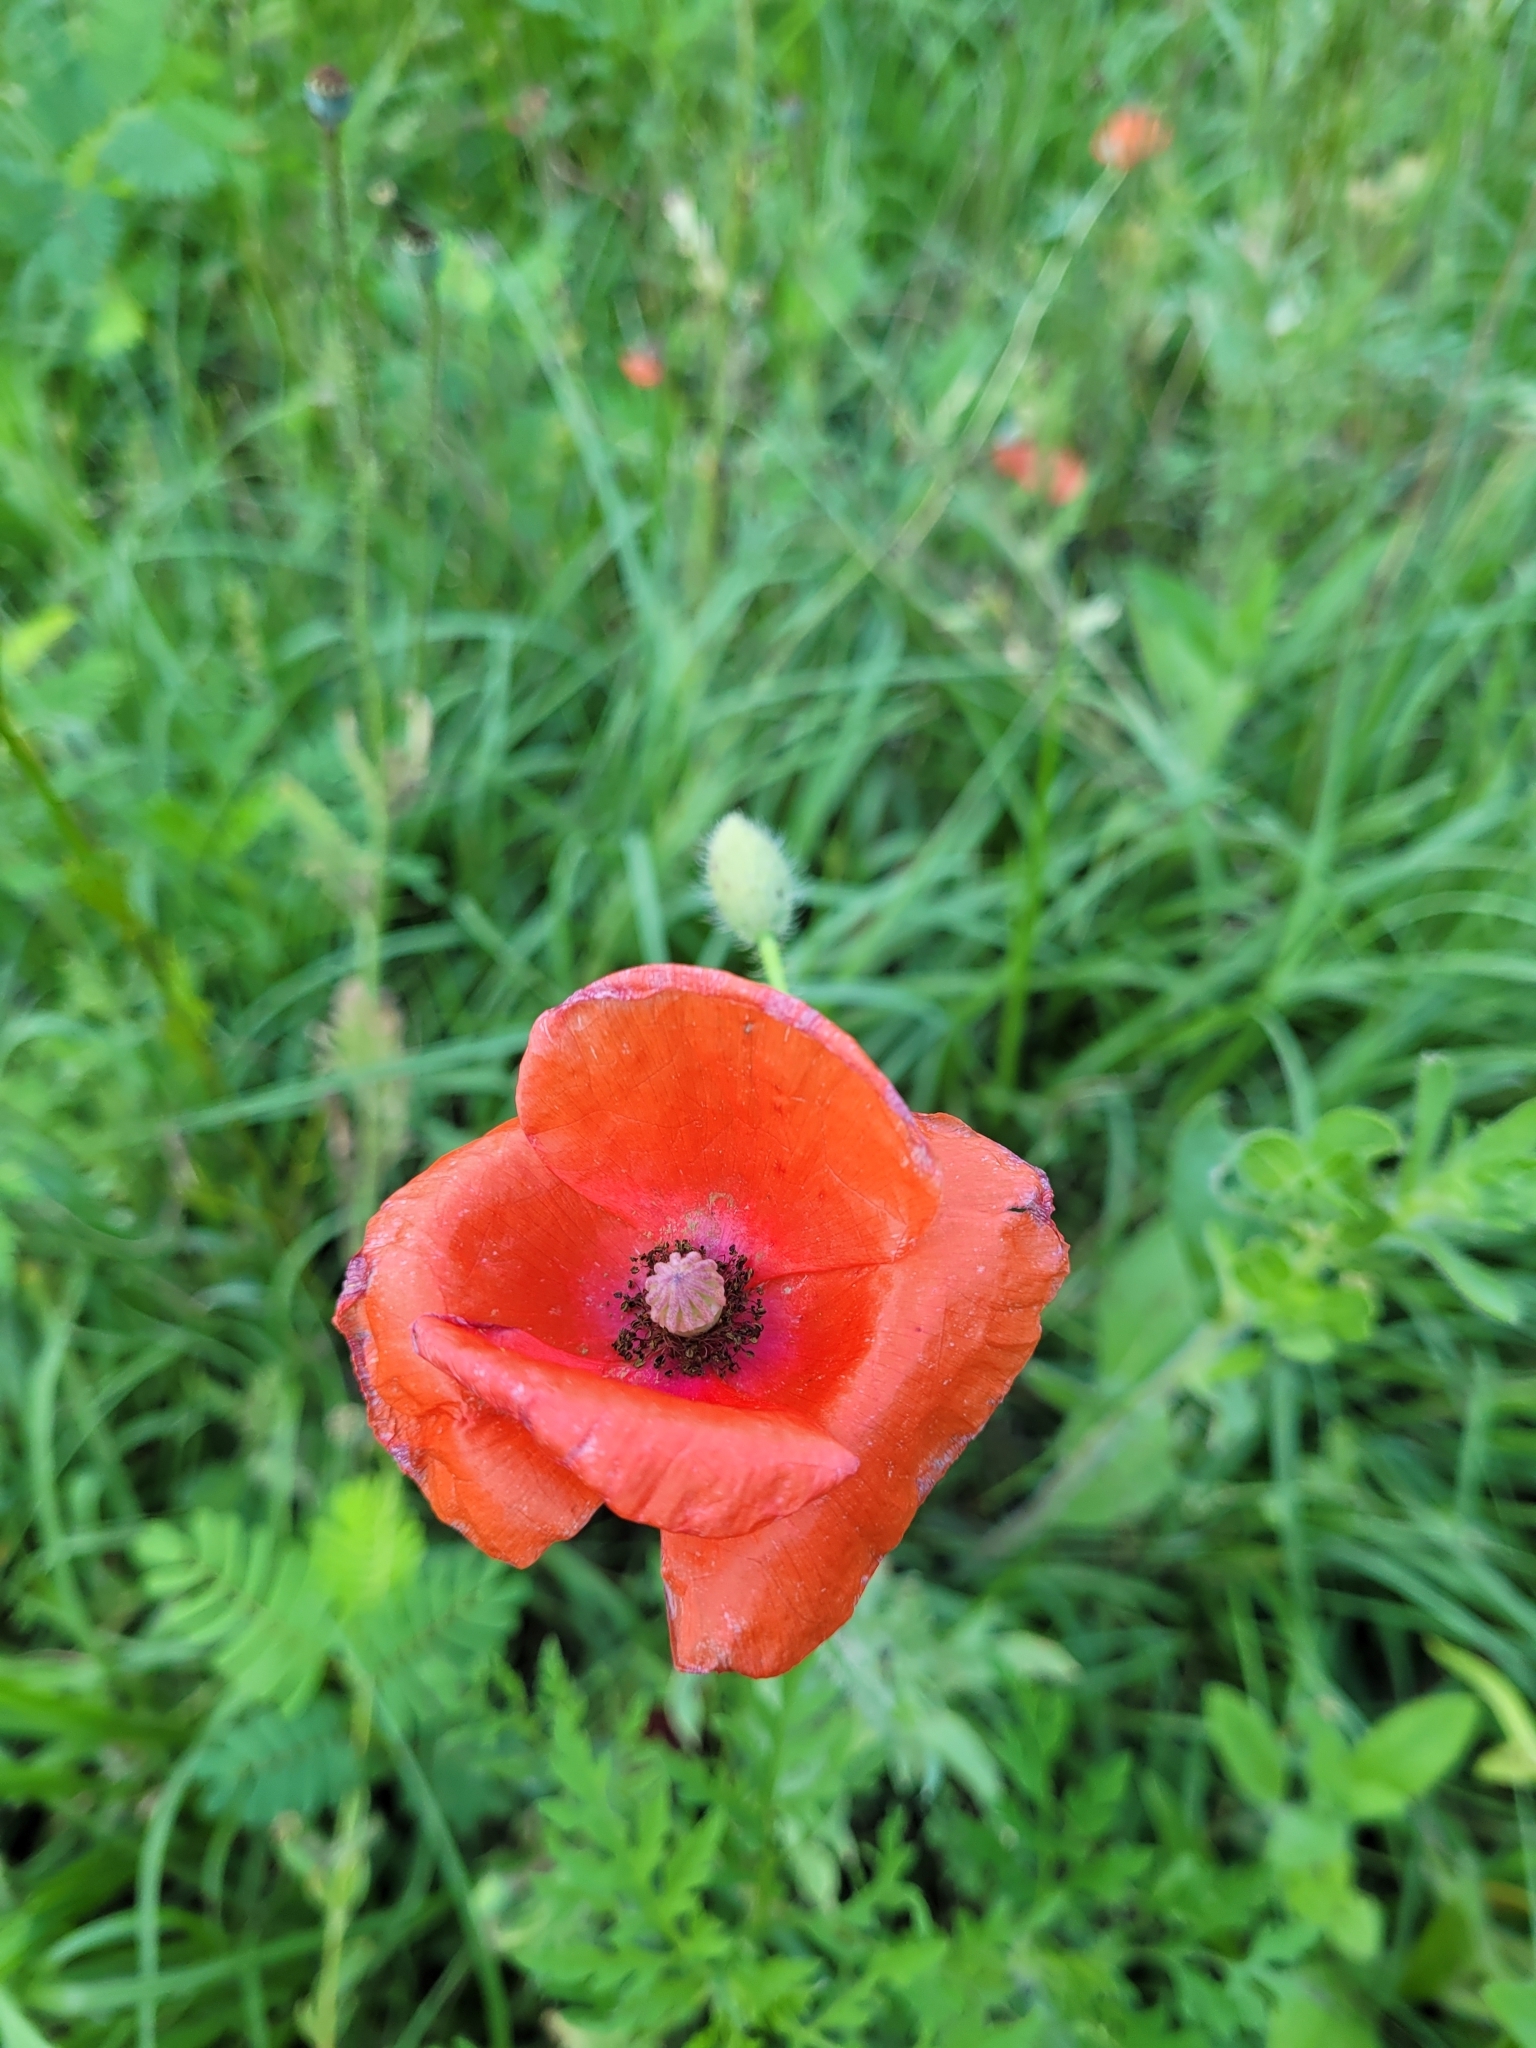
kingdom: Plantae
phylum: Tracheophyta
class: Magnoliopsida
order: Ranunculales
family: Papaveraceae
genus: Papaver
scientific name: Papaver rhoeas
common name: Corn poppy
